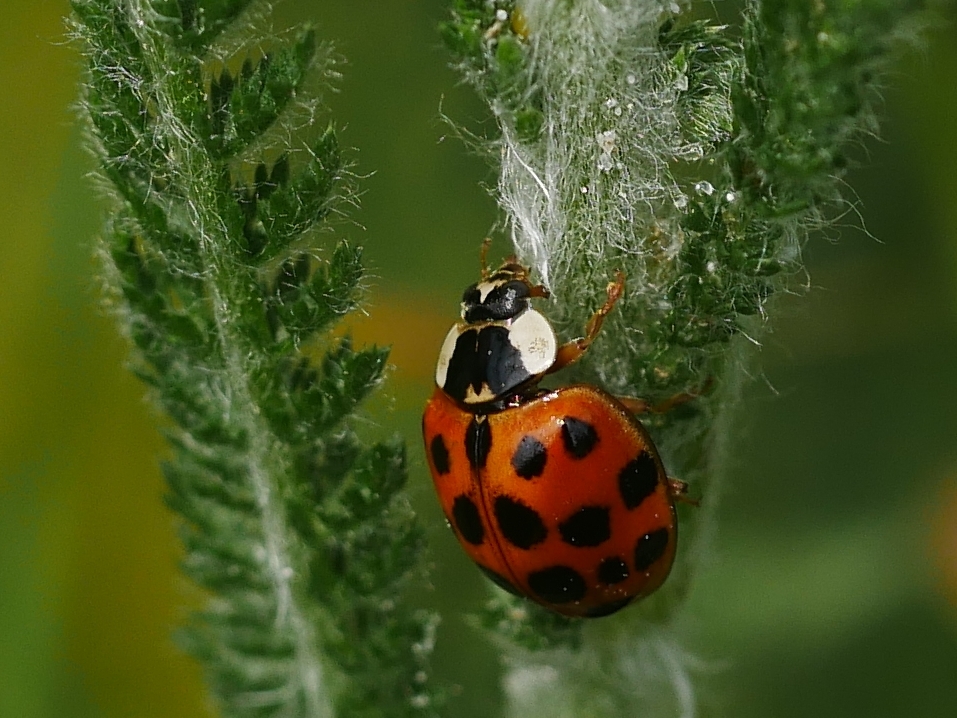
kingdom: Animalia
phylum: Arthropoda
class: Insecta
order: Coleoptera
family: Coccinellidae
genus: Harmonia
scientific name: Harmonia axyridis
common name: Harlequin ladybird
